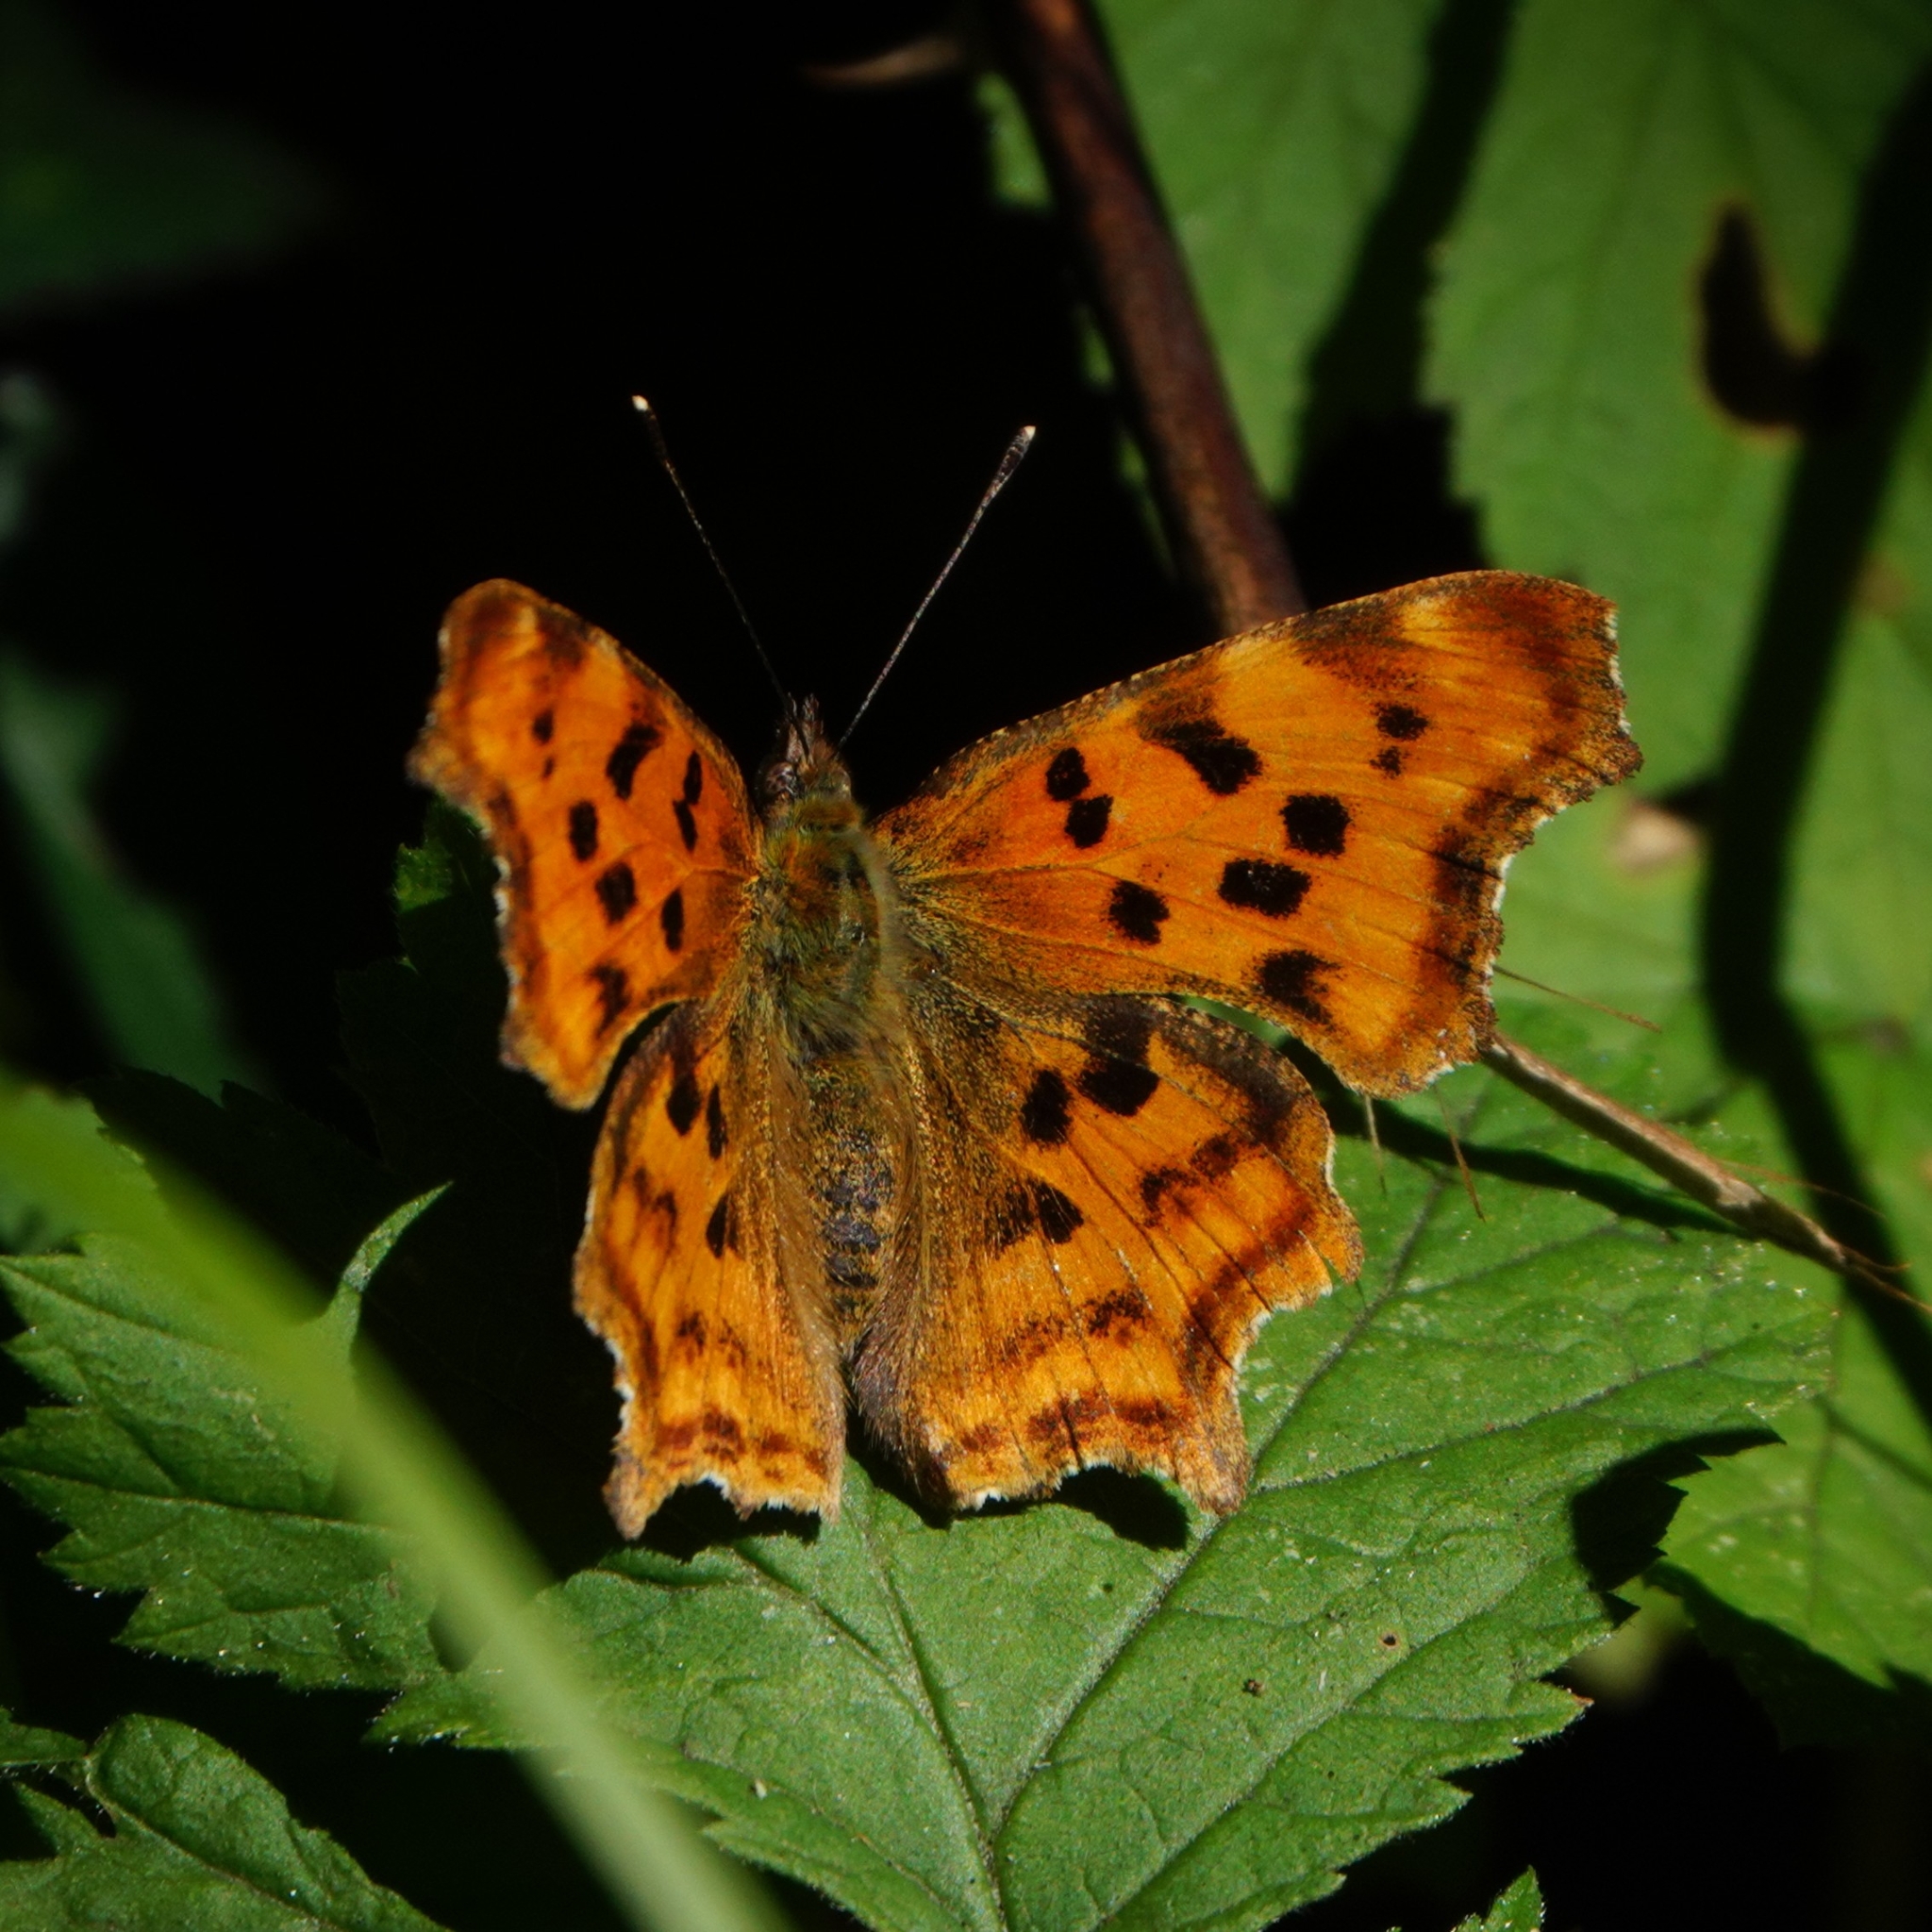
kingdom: Animalia
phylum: Arthropoda
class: Insecta
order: Lepidoptera
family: Nymphalidae
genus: Polygonia
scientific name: Polygonia c-album
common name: Comma
